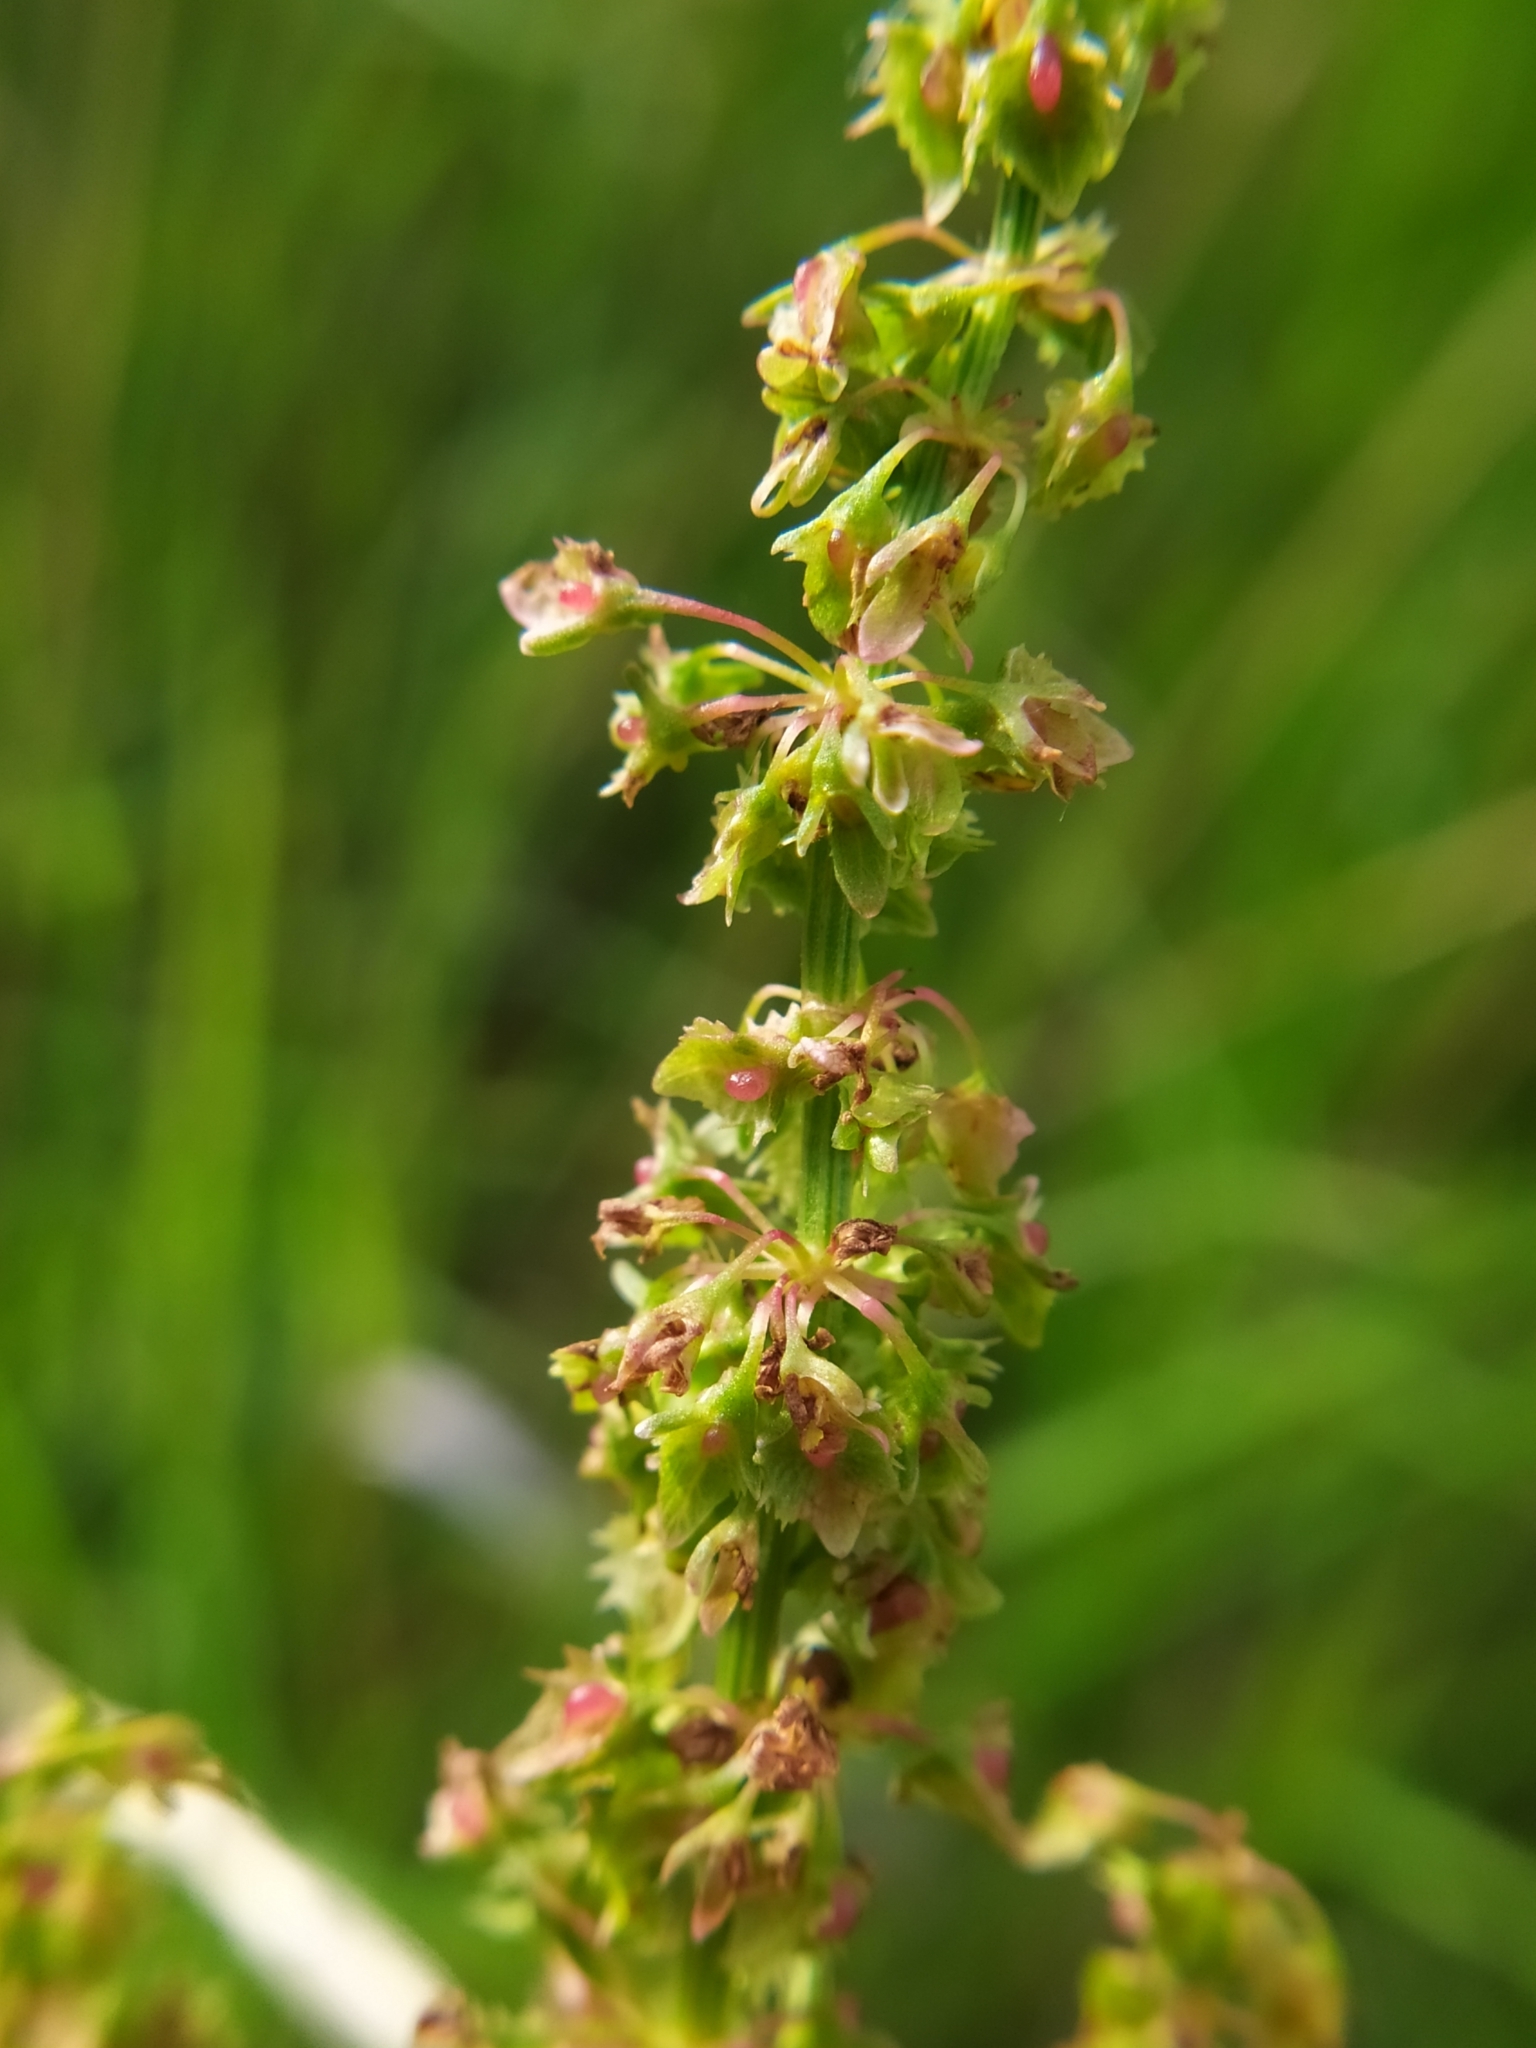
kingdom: Plantae
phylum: Tracheophyta
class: Magnoliopsida
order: Caryophyllales
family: Polygonaceae
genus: Rumex
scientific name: Rumex obtusifolius
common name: Bitter dock
